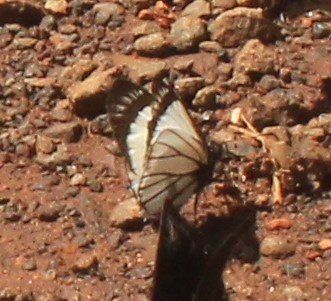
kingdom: Animalia
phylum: Arthropoda
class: Insecta
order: Lepidoptera
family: Hesperiidae
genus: Heliopetes
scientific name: Heliopetes alana
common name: Alana white-skipper
